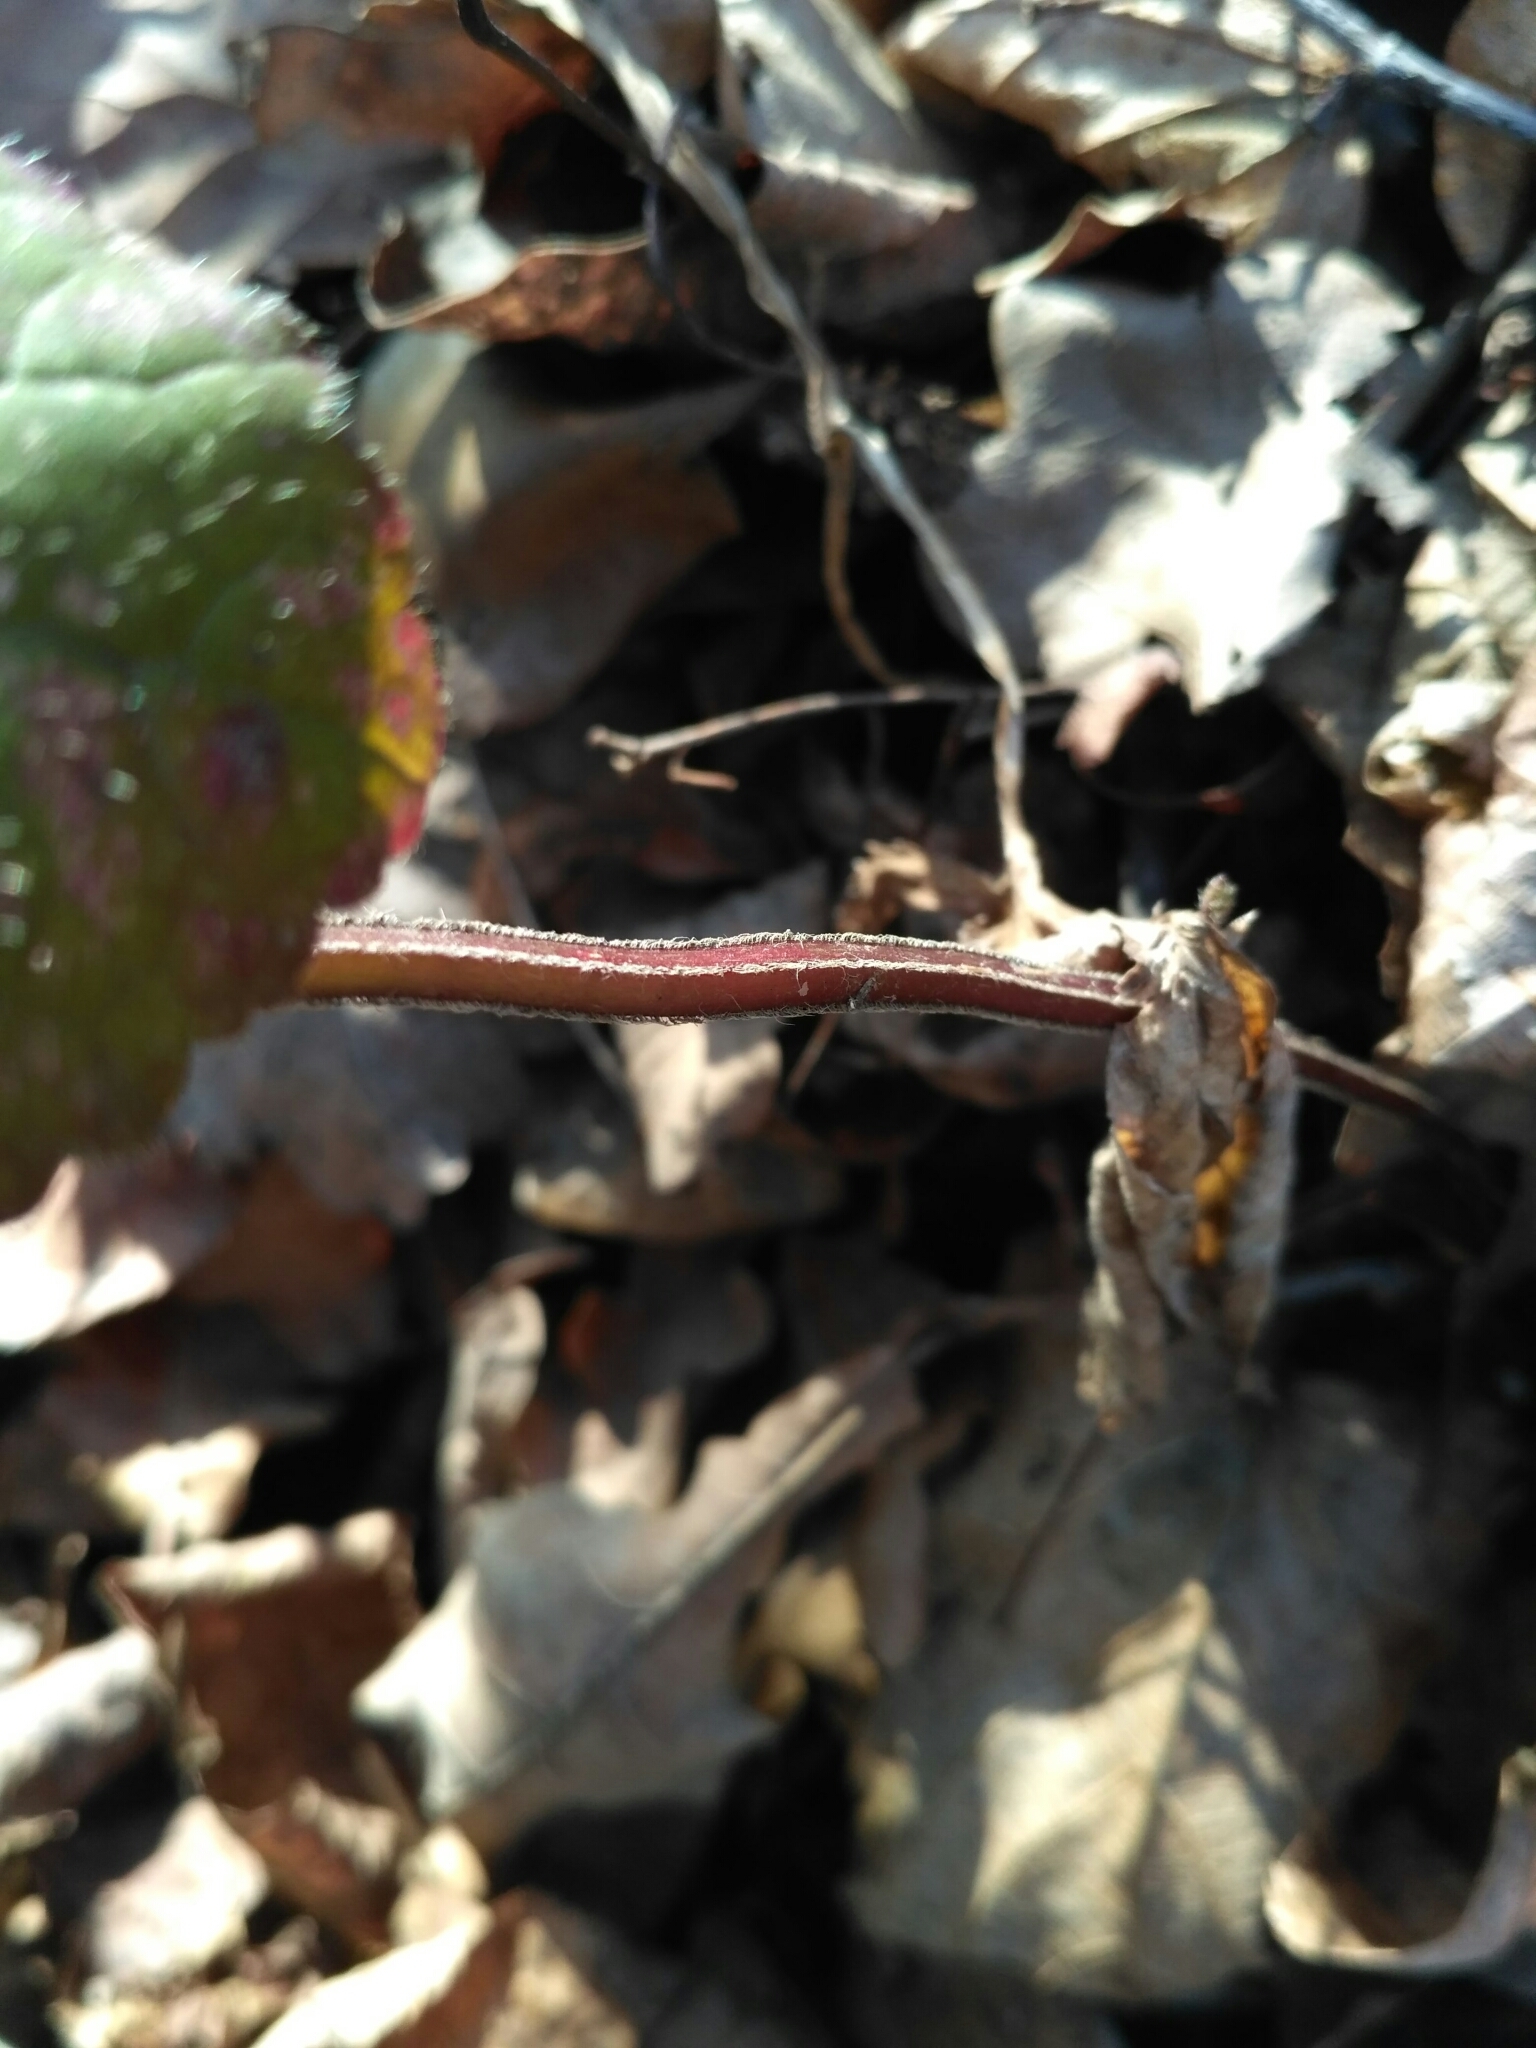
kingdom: Plantae
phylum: Tracheophyta
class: Magnoliopsida
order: Lamiales
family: Lamiaceae
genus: Lamium
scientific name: Lamium galeobdolon
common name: Yellow archangel
